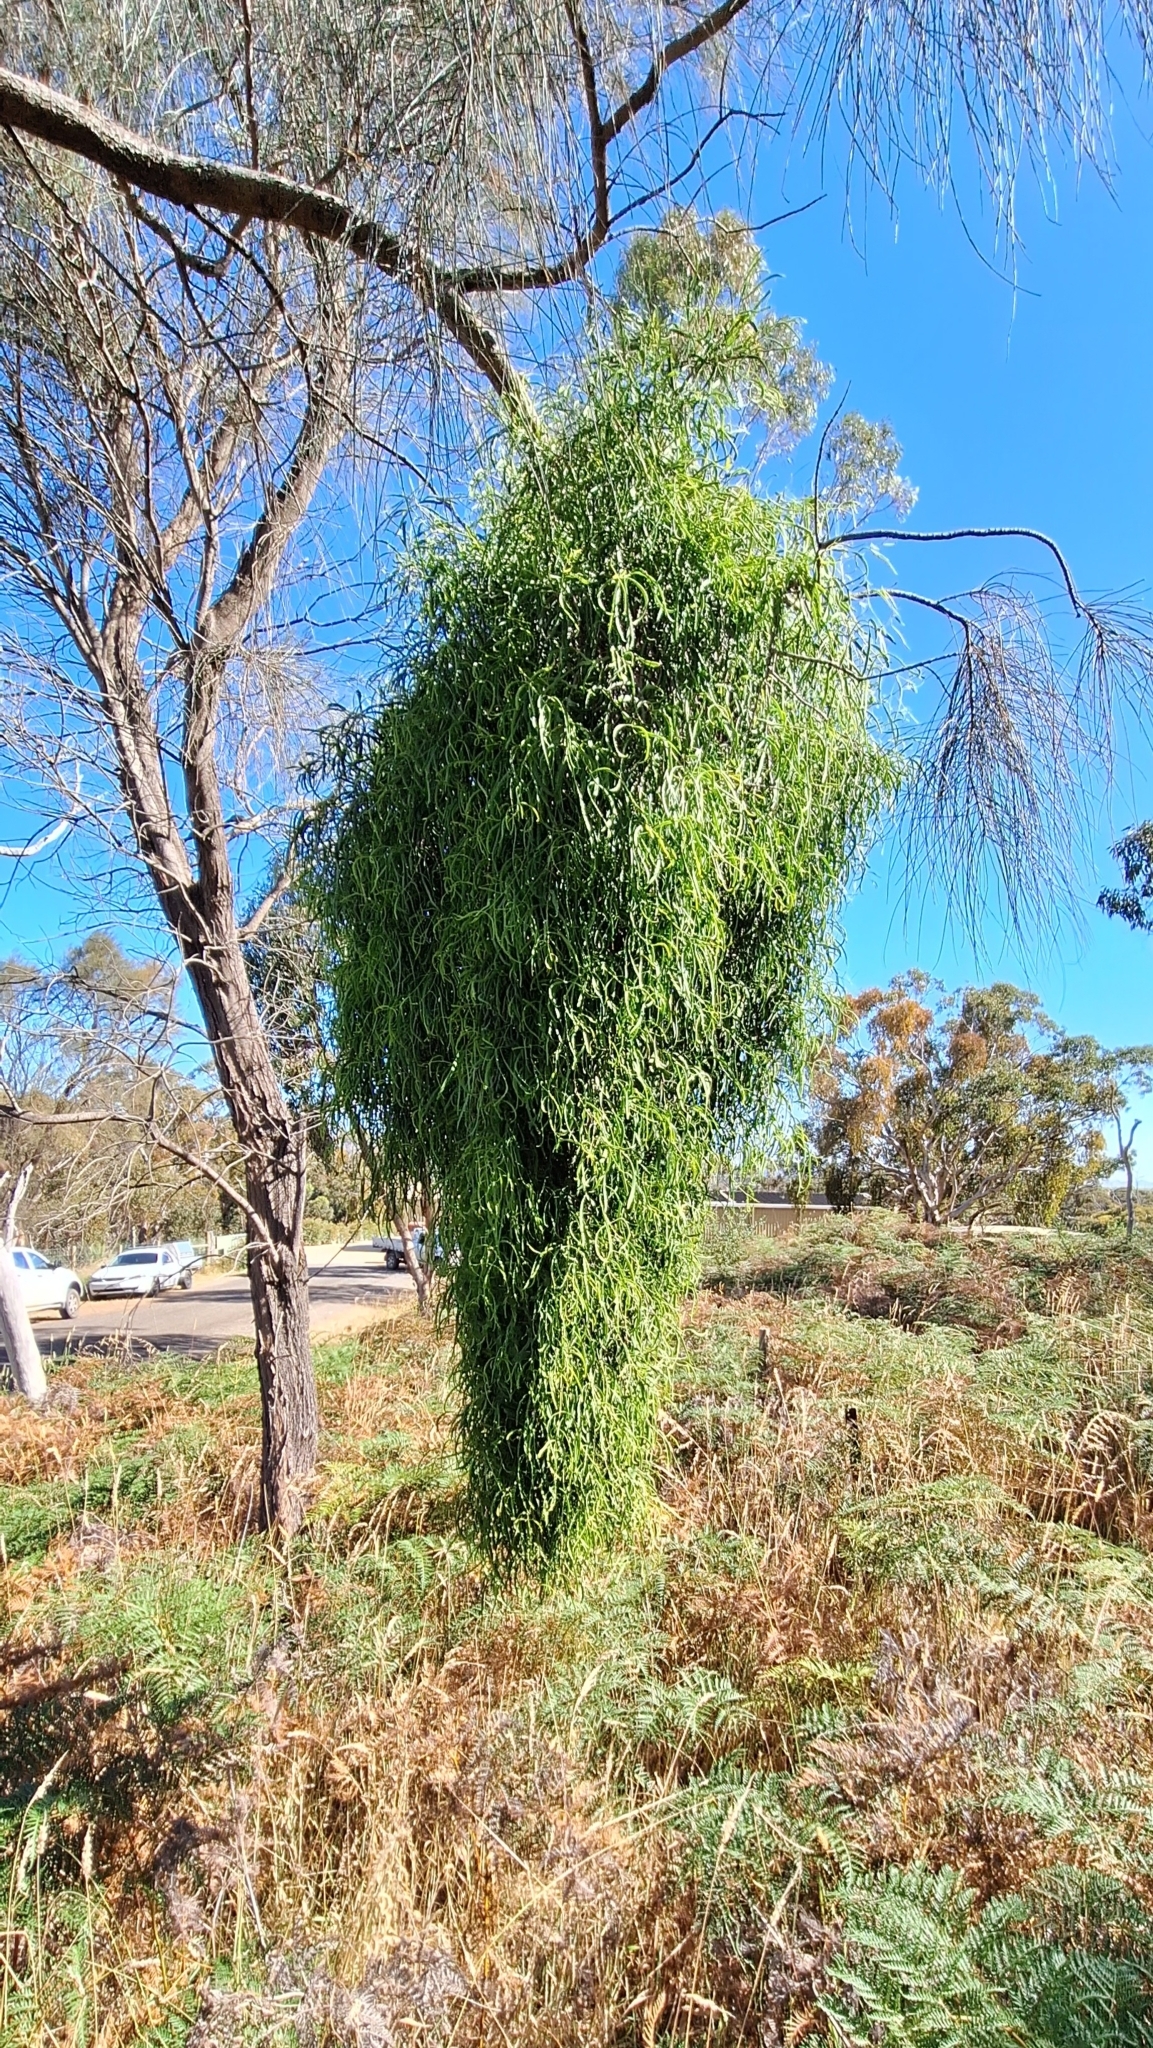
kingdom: Plantae
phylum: Tracheophyta
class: Magnoliopsida
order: Santalales
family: Loranthaceae
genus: Lysiana
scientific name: Lysiana exocarpi
